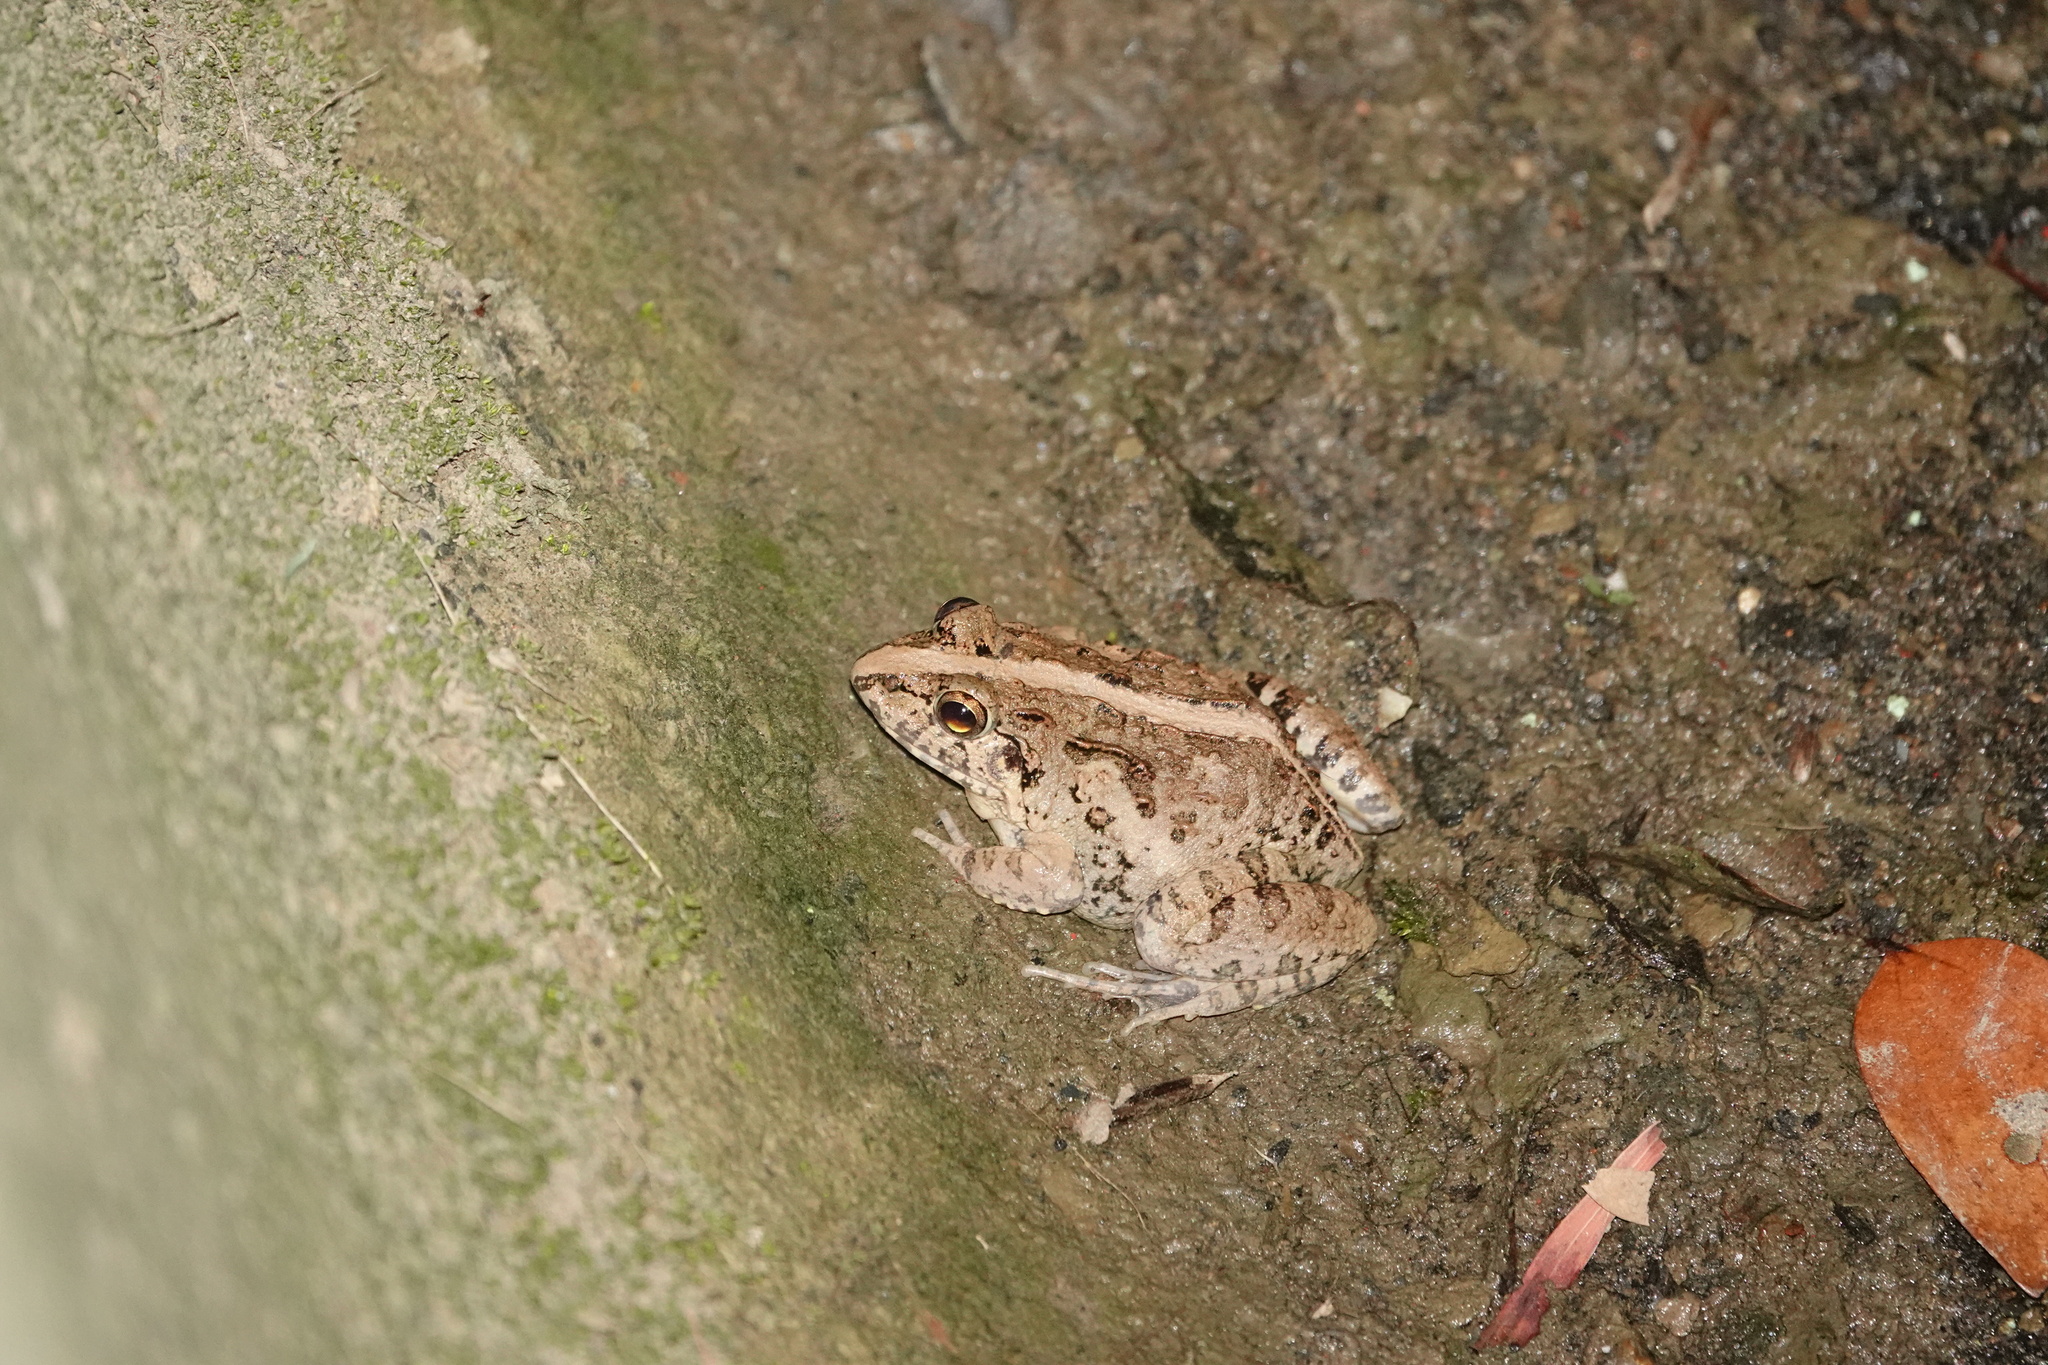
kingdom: Animalia
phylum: Chordata
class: Amphibia
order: Anura
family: Dicroglossidae
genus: Fejervarya
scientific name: Fejervarya limnocharis
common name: Asian grass frog/common pond frog/field frog/grass frog/indian rice frog
